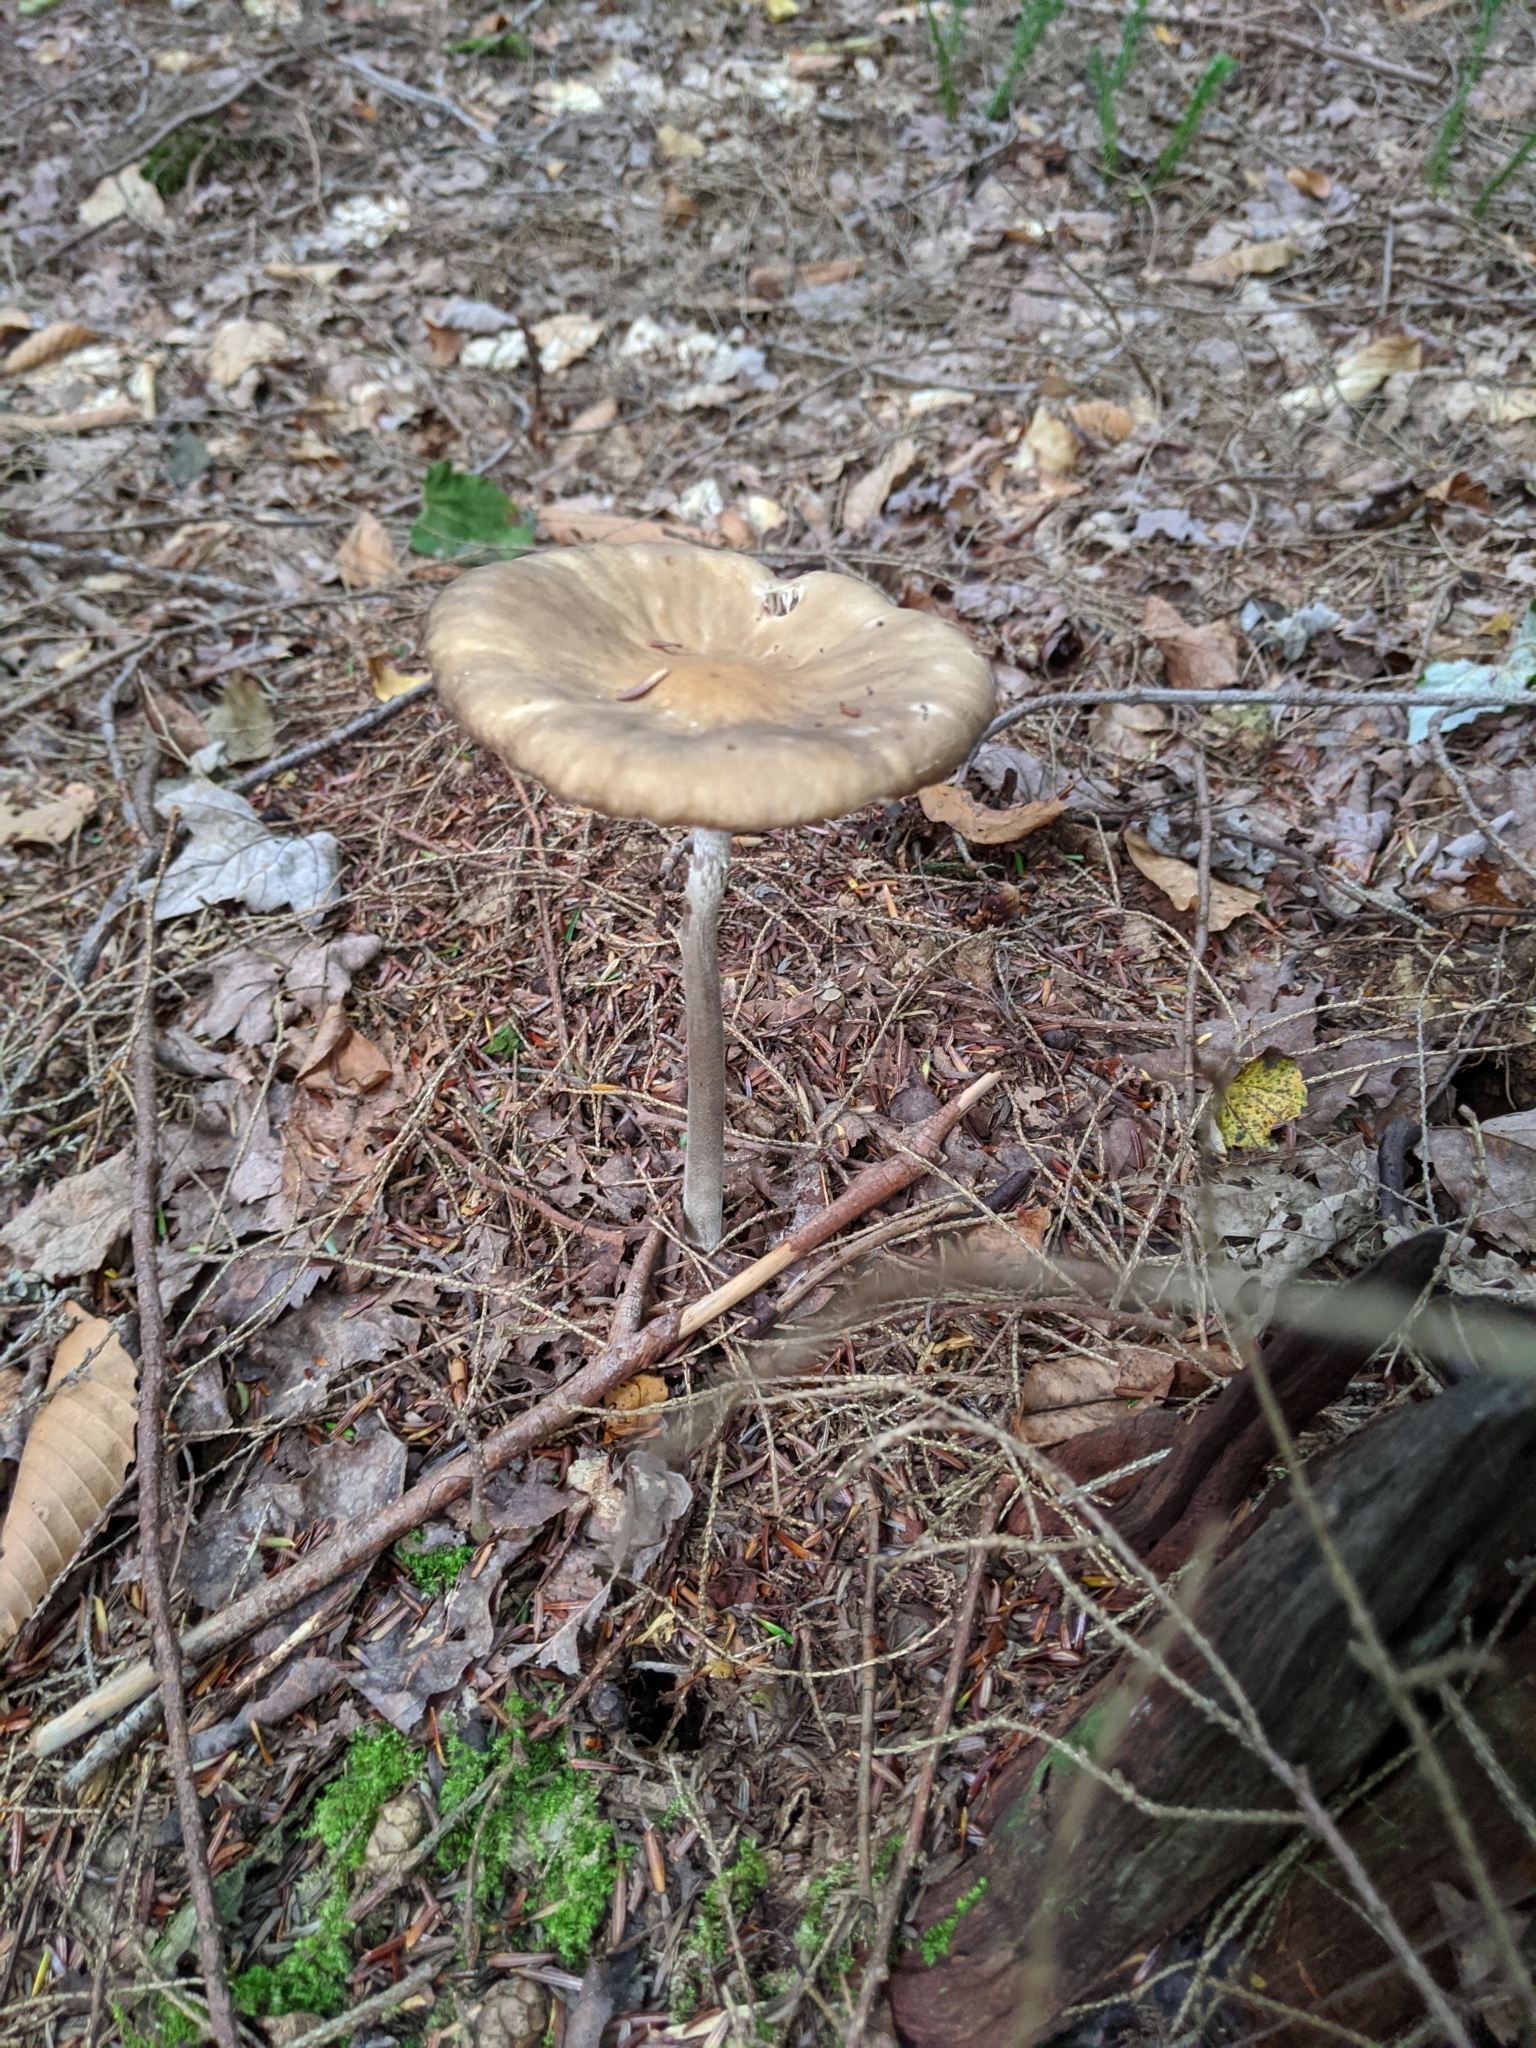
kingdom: Fungi
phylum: Basidiomycota
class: Agaricomycetes
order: Agaricales
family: Physalacriaceae
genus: Hymenopellis
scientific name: Hymenopellis furfuracea
